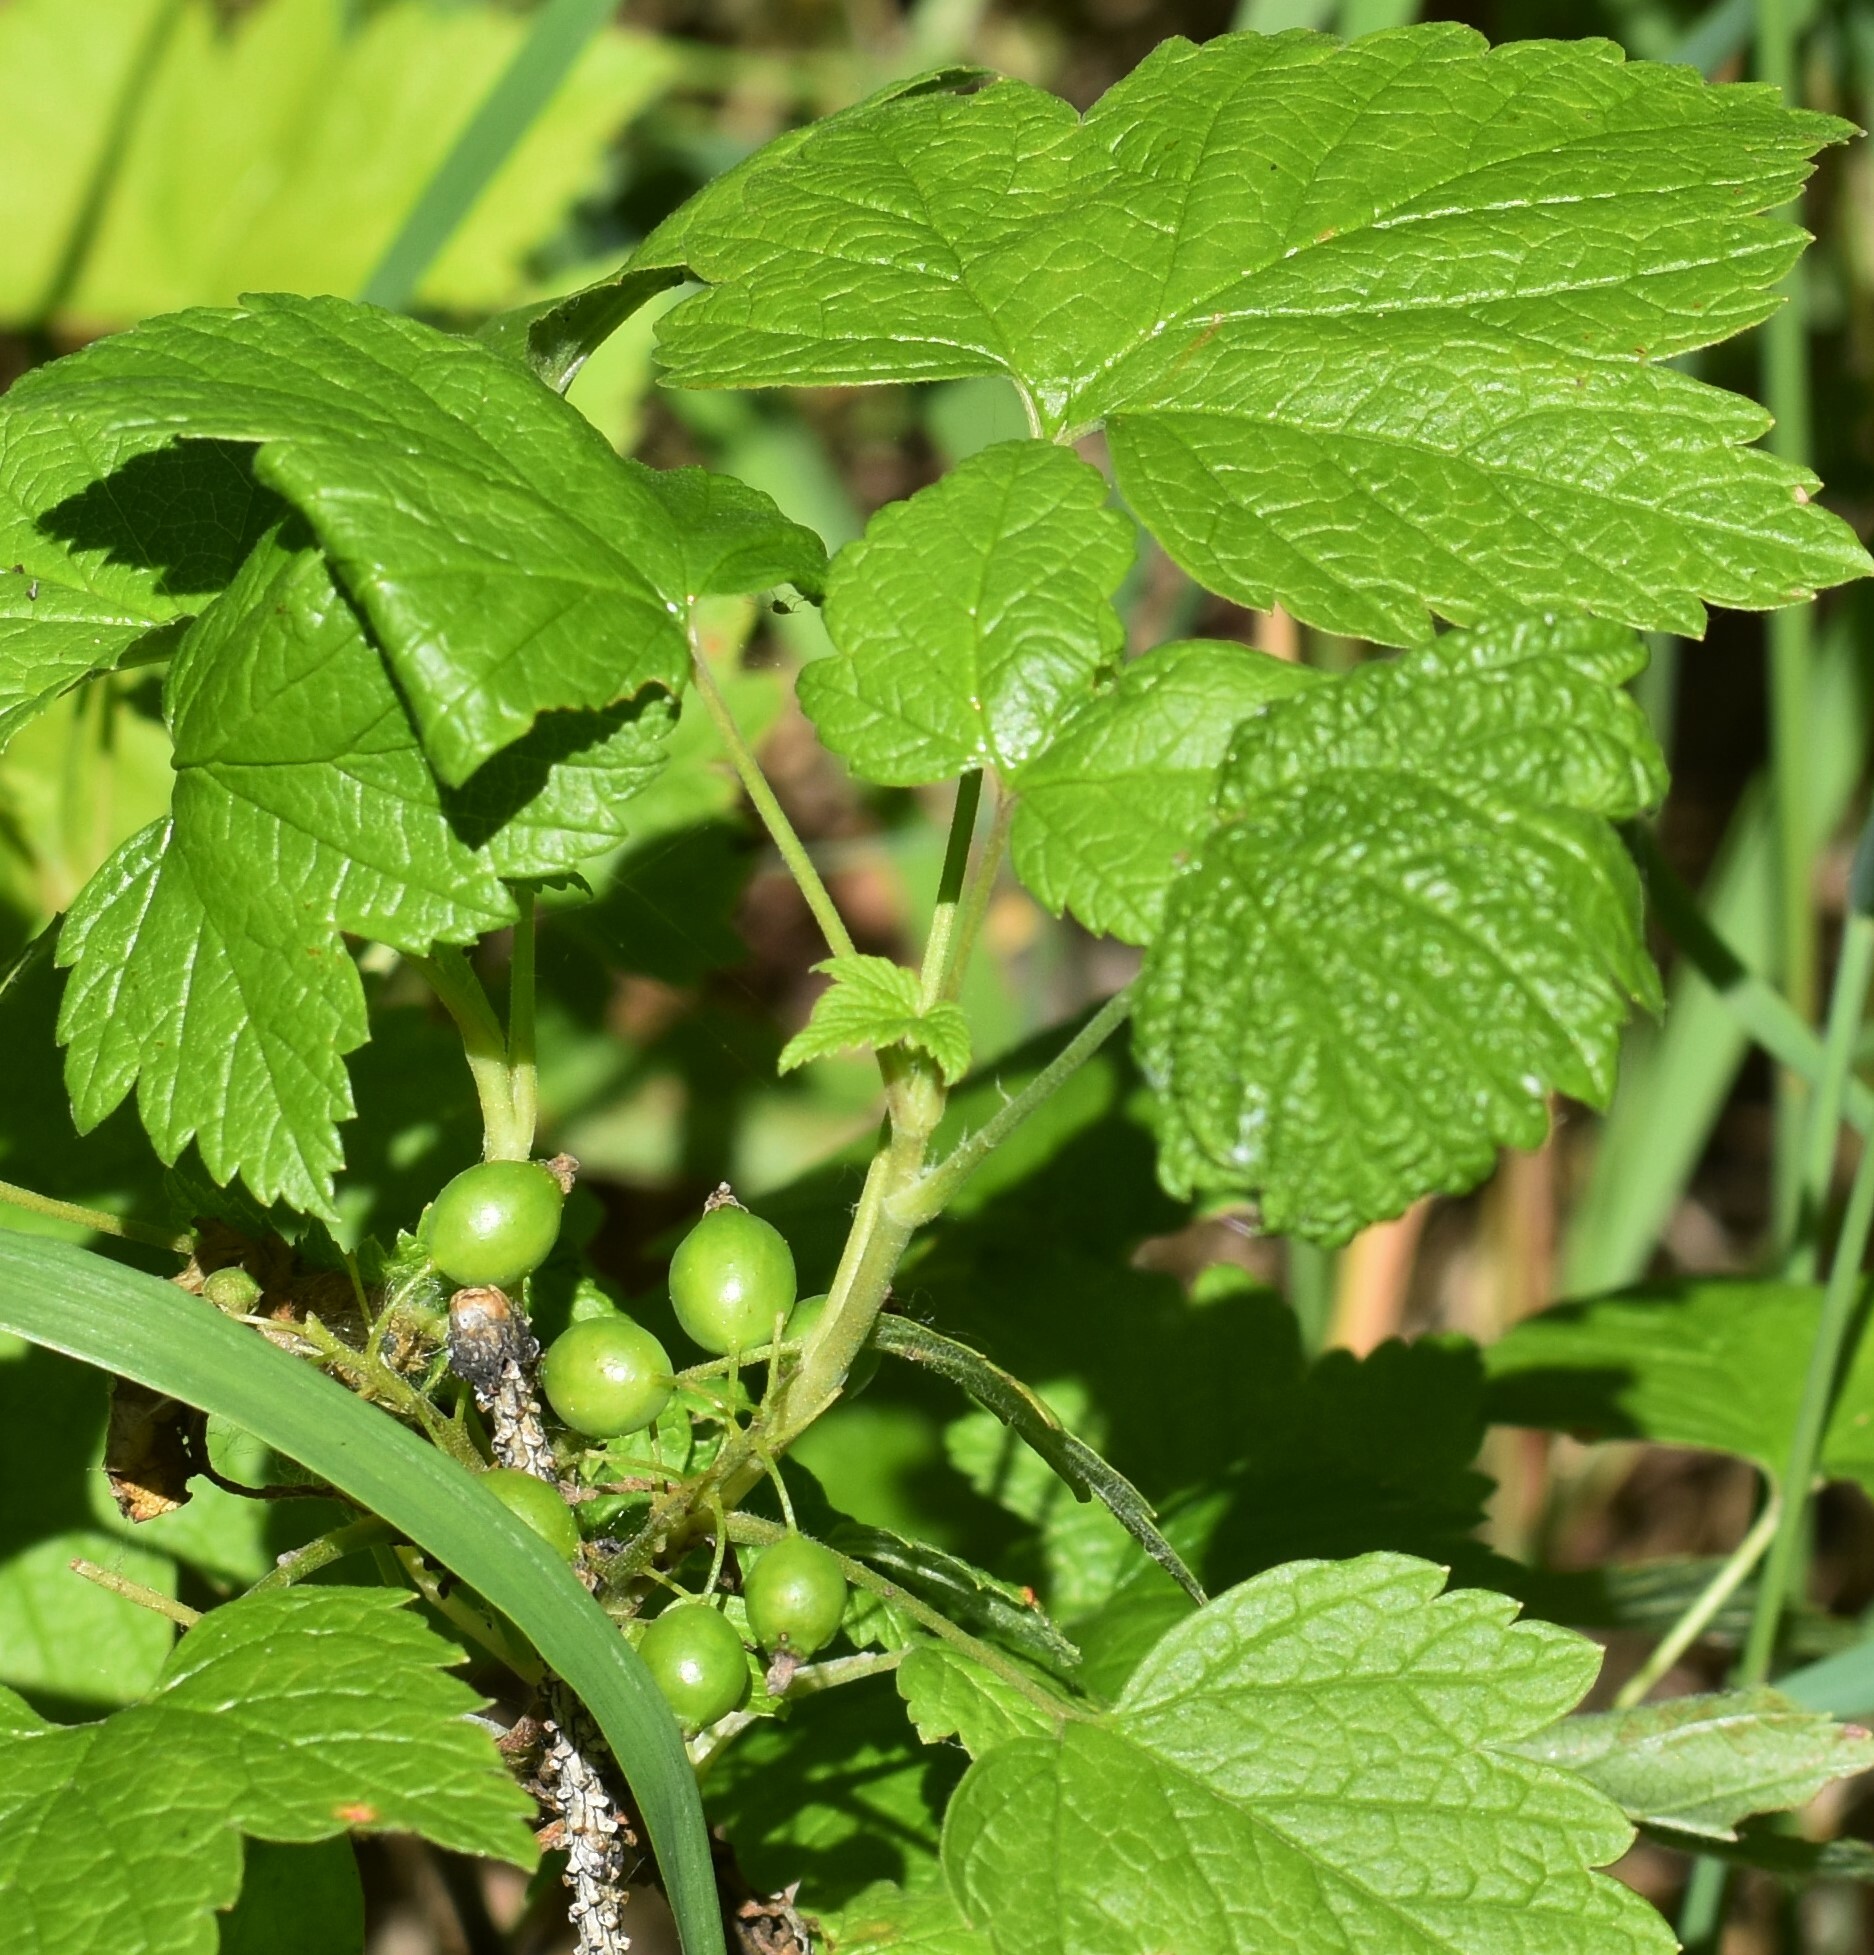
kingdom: Plantae
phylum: Tracheophyta
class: Magnoliopsida
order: Saxifragales
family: Grossulariaceae
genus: Ribes
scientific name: Ribes hudsonianum
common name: Northern black currant
